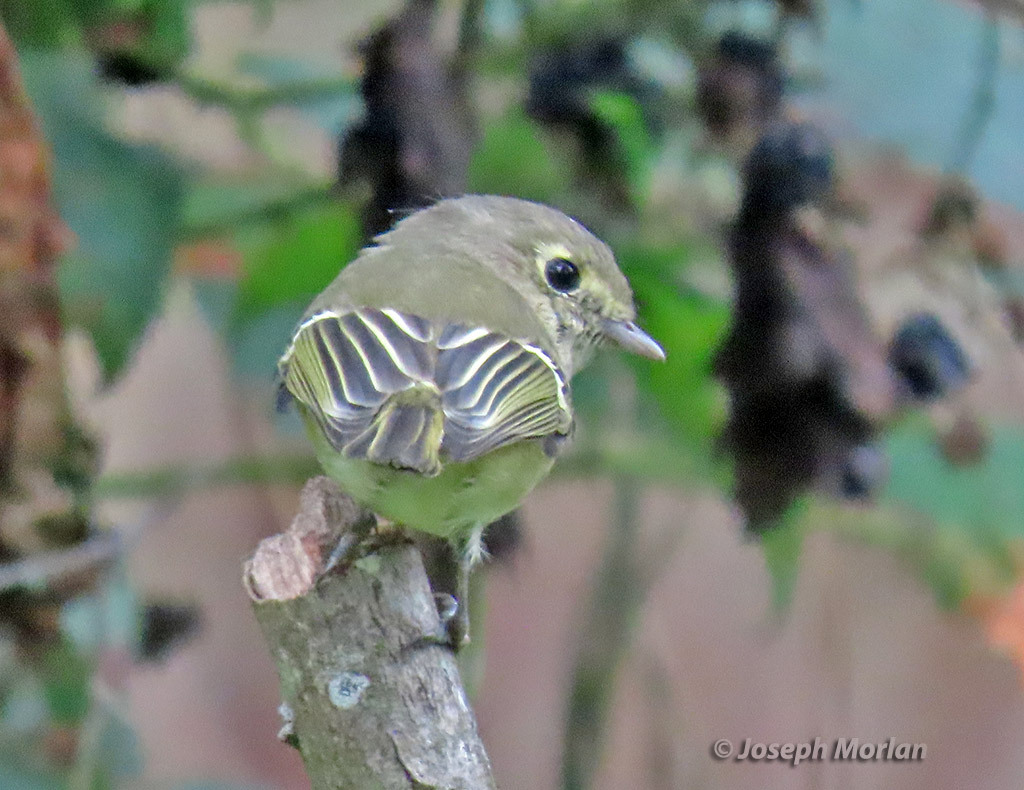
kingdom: Animalia
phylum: Chordata
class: Aves
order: Passeriformes
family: Vireonidae
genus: Vireo
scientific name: Vireo huttoni
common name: Hutton's vireo
